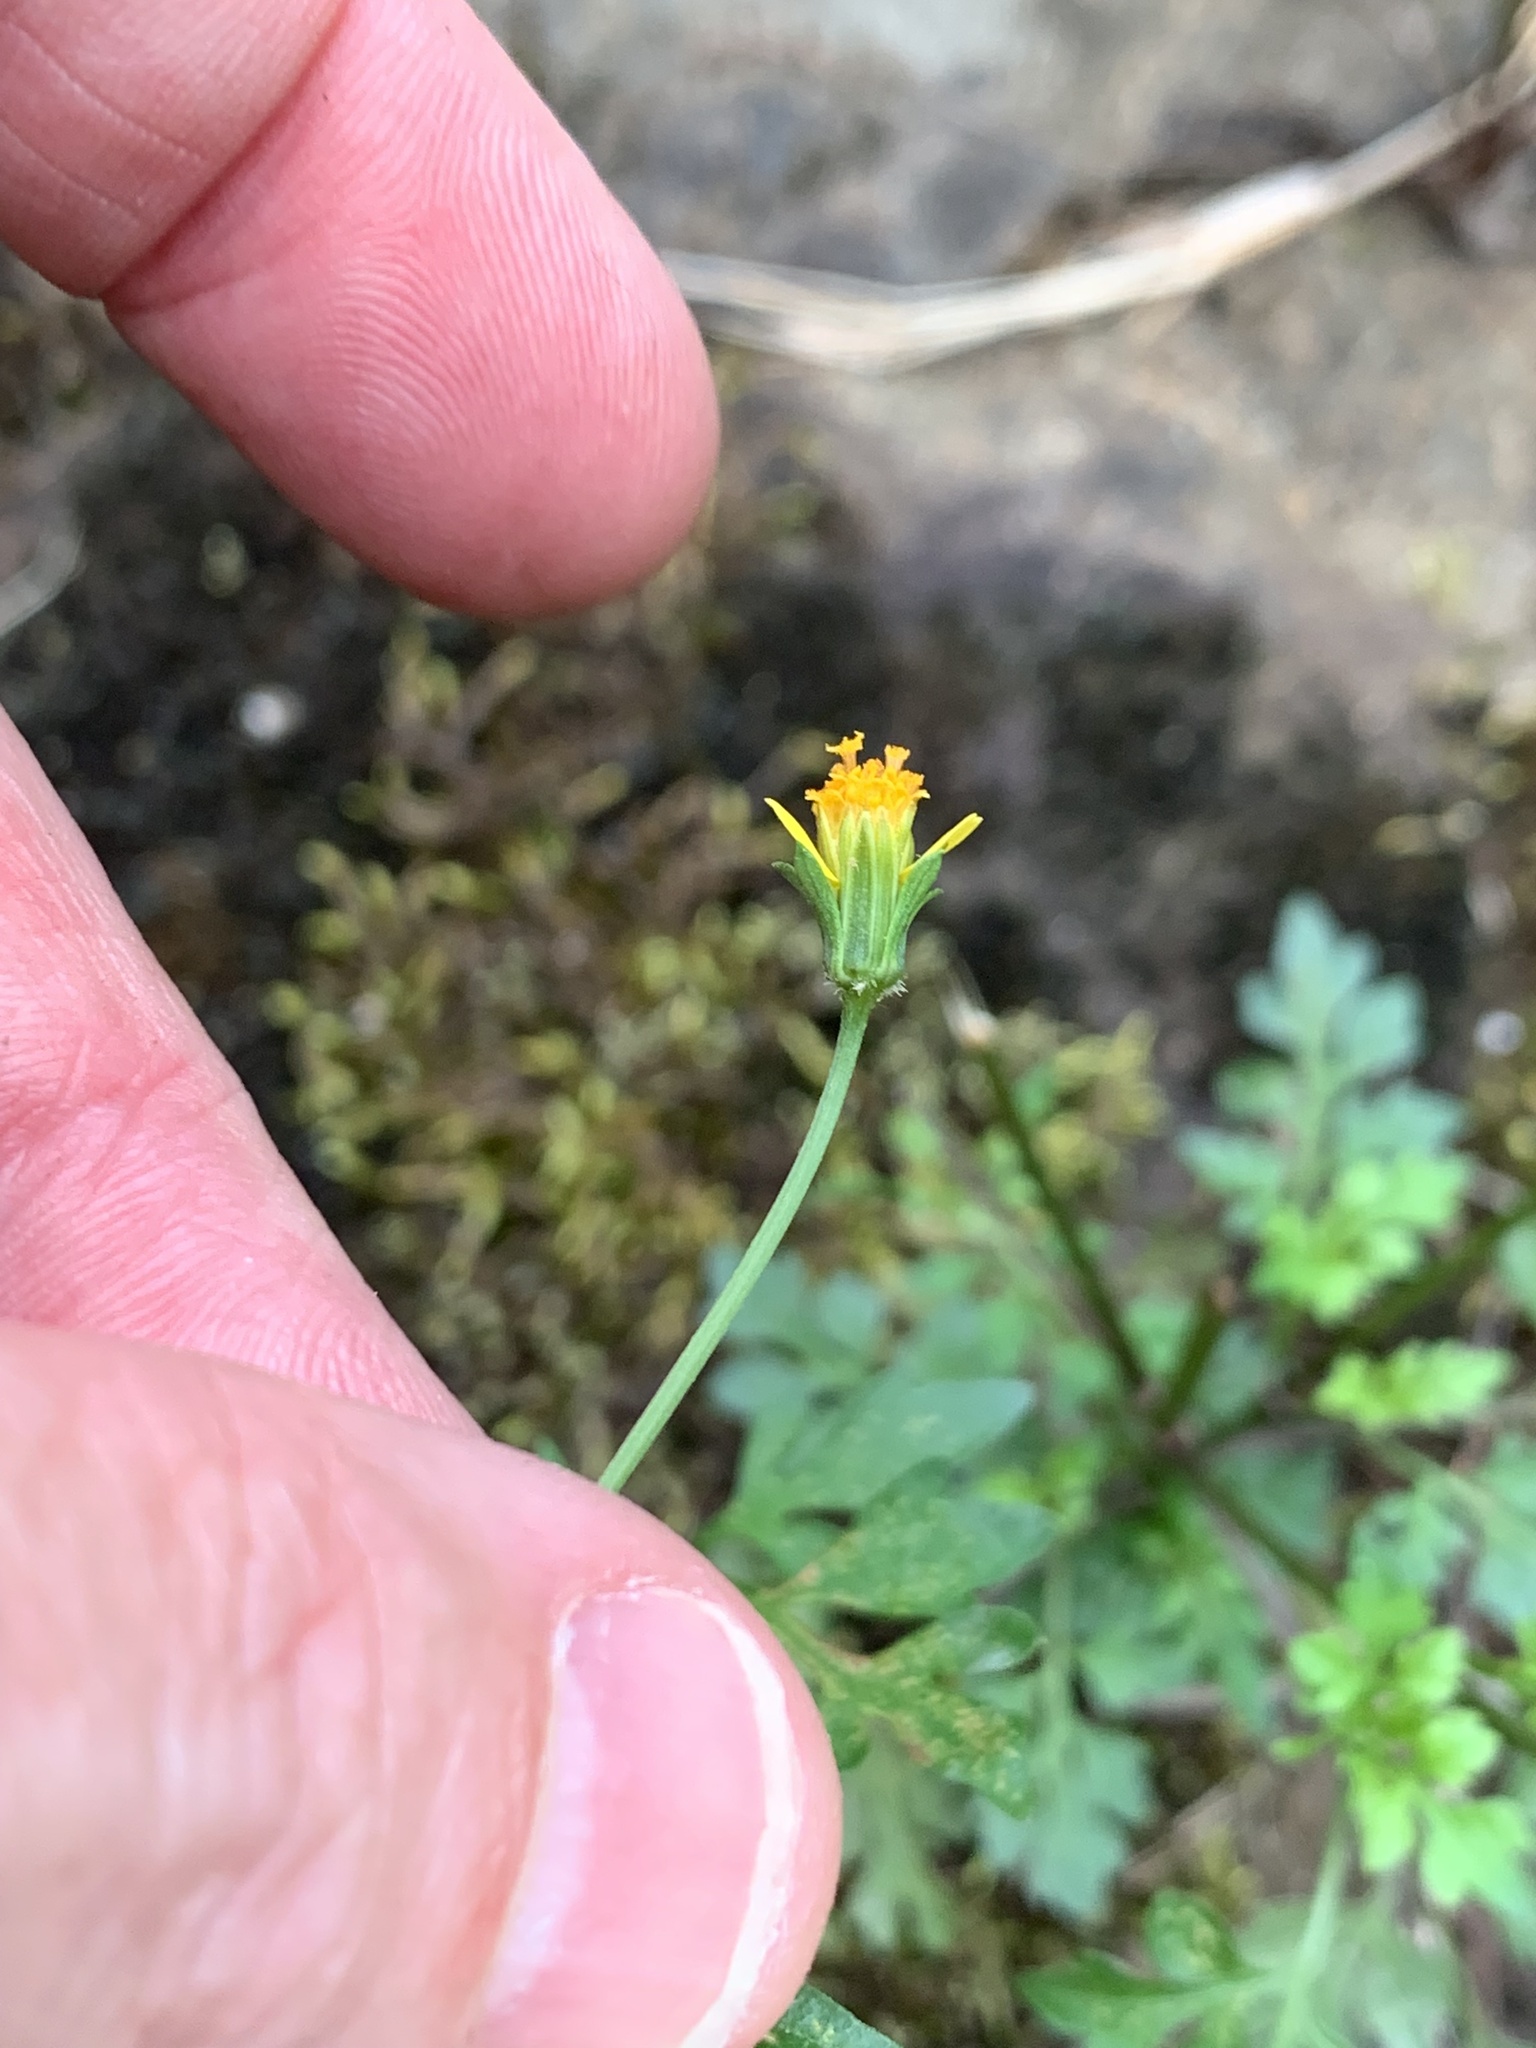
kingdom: Plantae
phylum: Tracheophyta
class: Magnoliopsida
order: Asterales
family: Asteraceae
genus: Bidens
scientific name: Bidens bipinnata
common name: Spanish-needles
